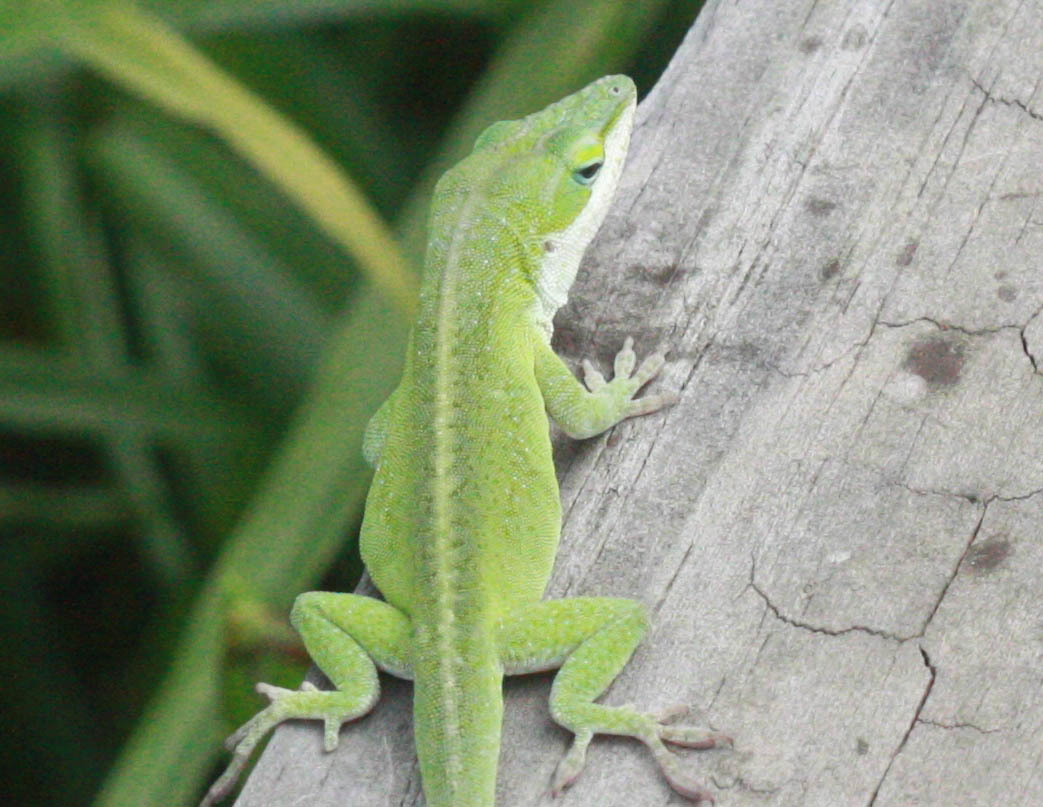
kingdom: Animalia
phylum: Chordata
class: Squamata
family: Dactyloidae
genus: Anolis
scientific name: Anolis carolinensis
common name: Green anole
